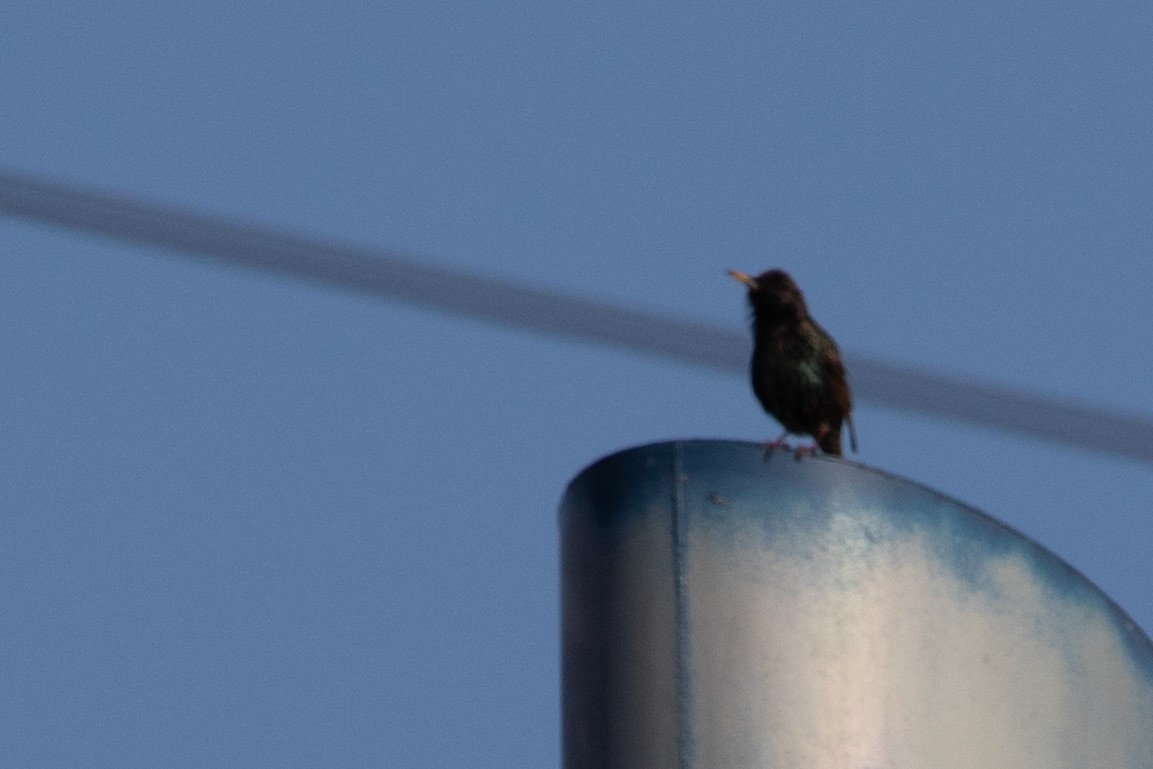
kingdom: Animalia
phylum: Chordata
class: Aves
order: Passeriformes
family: Sturnidae
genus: Sturnus
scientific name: Sturnus vulgaris
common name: Common starling
